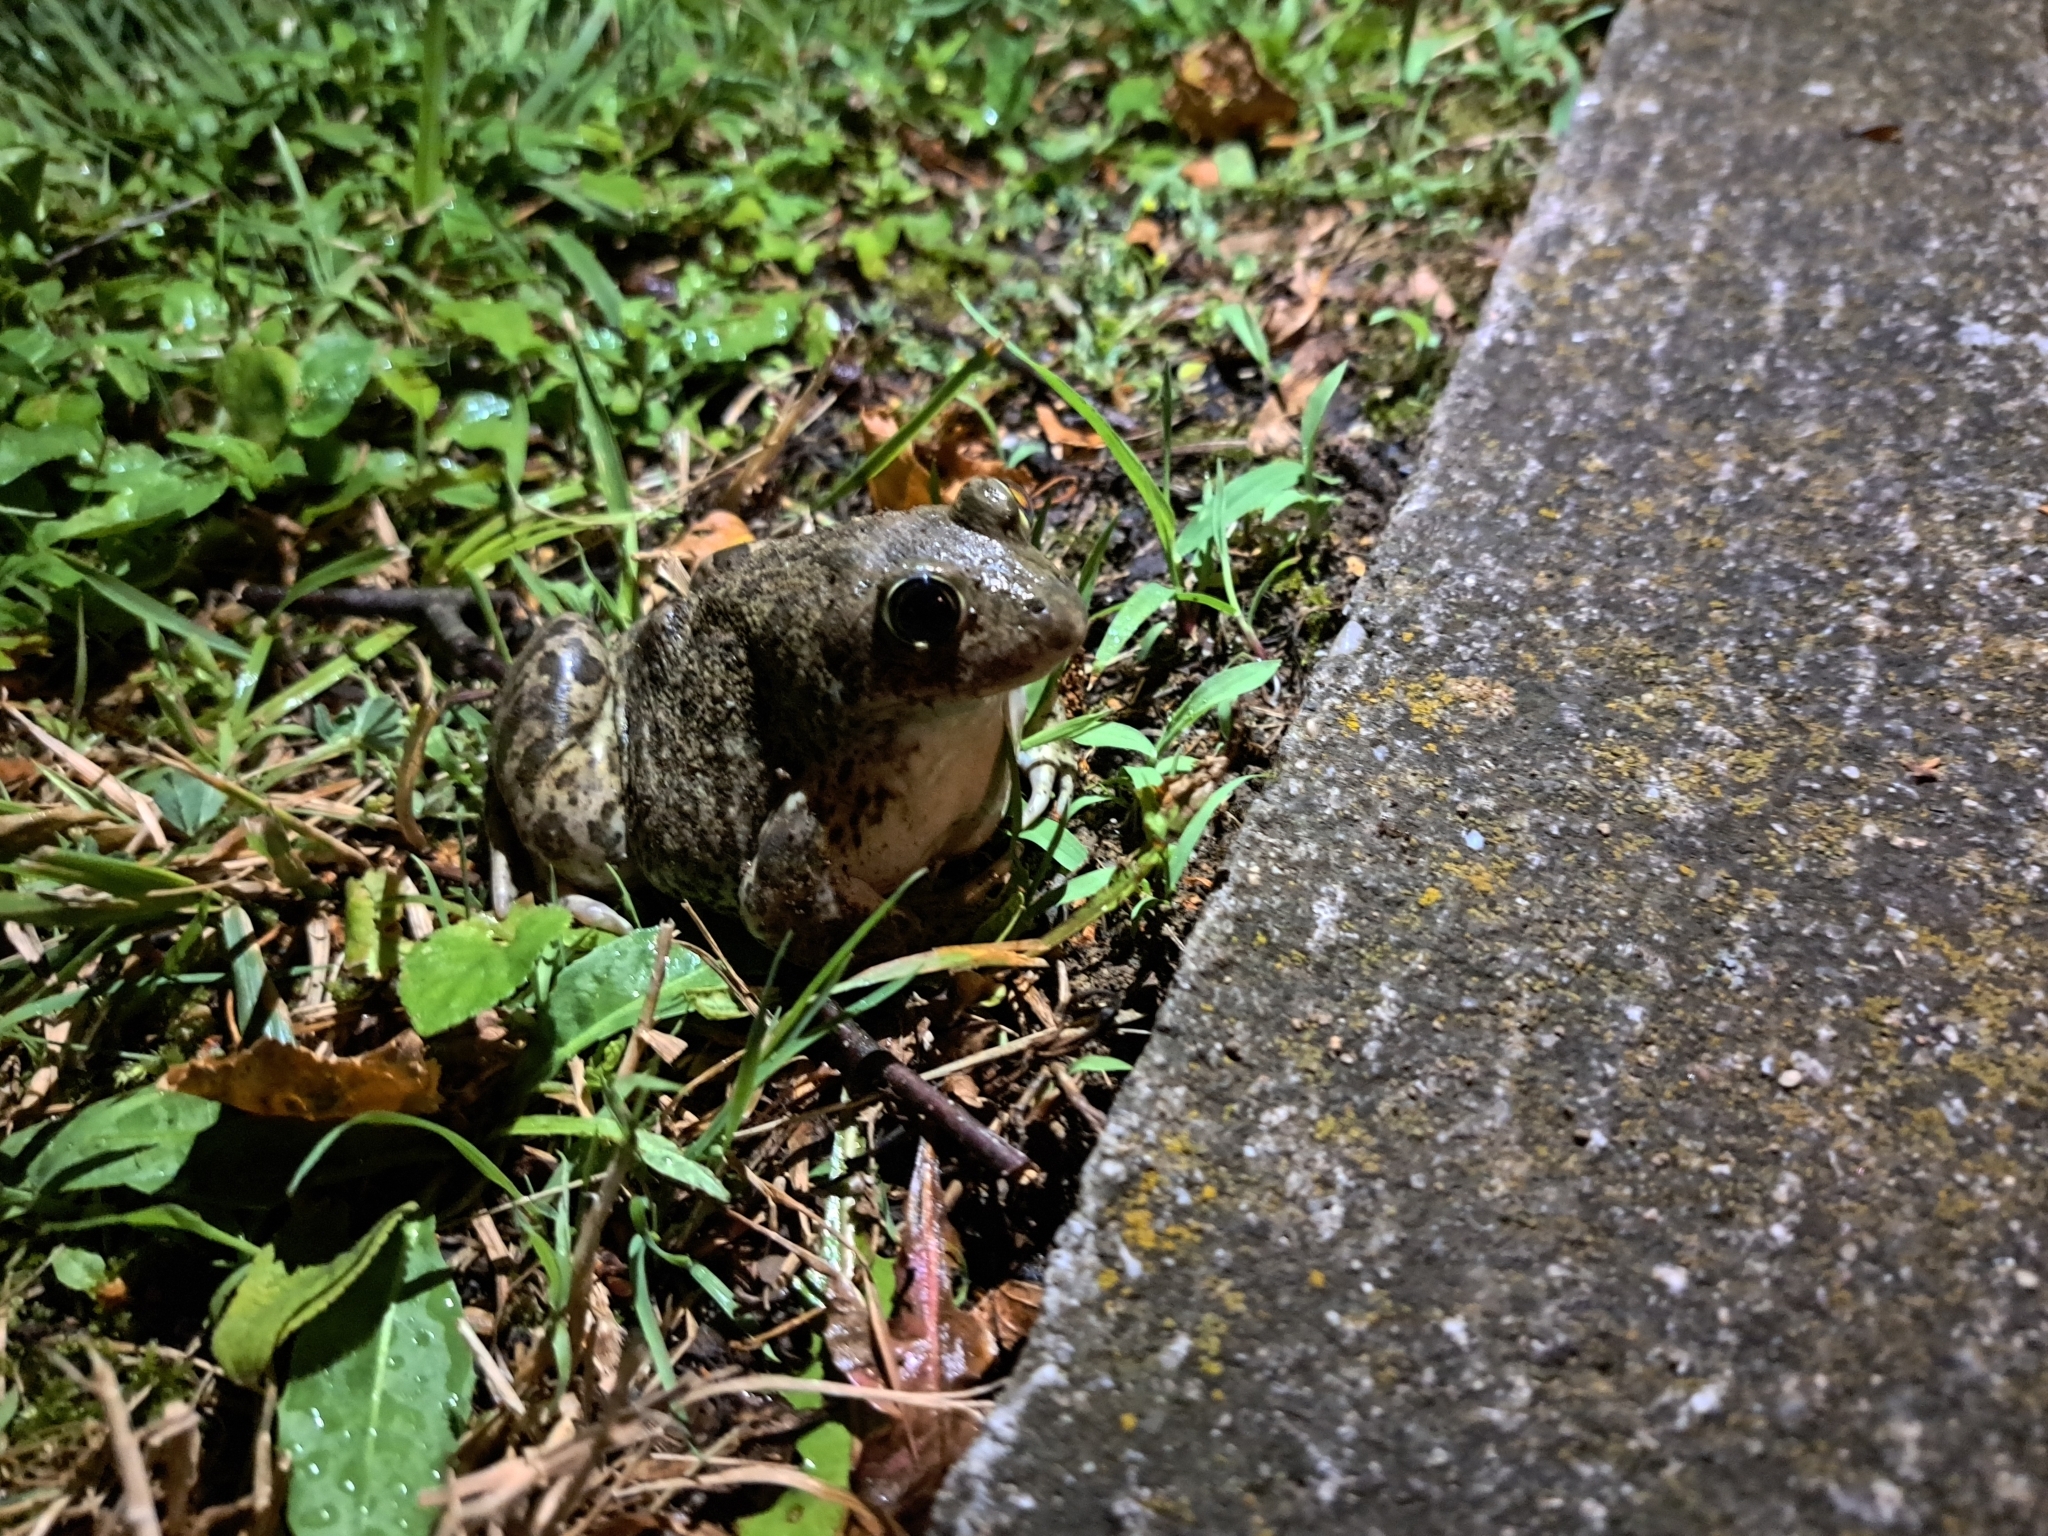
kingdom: Animalia
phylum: Chordata
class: Amphibia
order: Anura
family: Pelobatidae
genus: Pelobates
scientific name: Pelobates balcanicus
